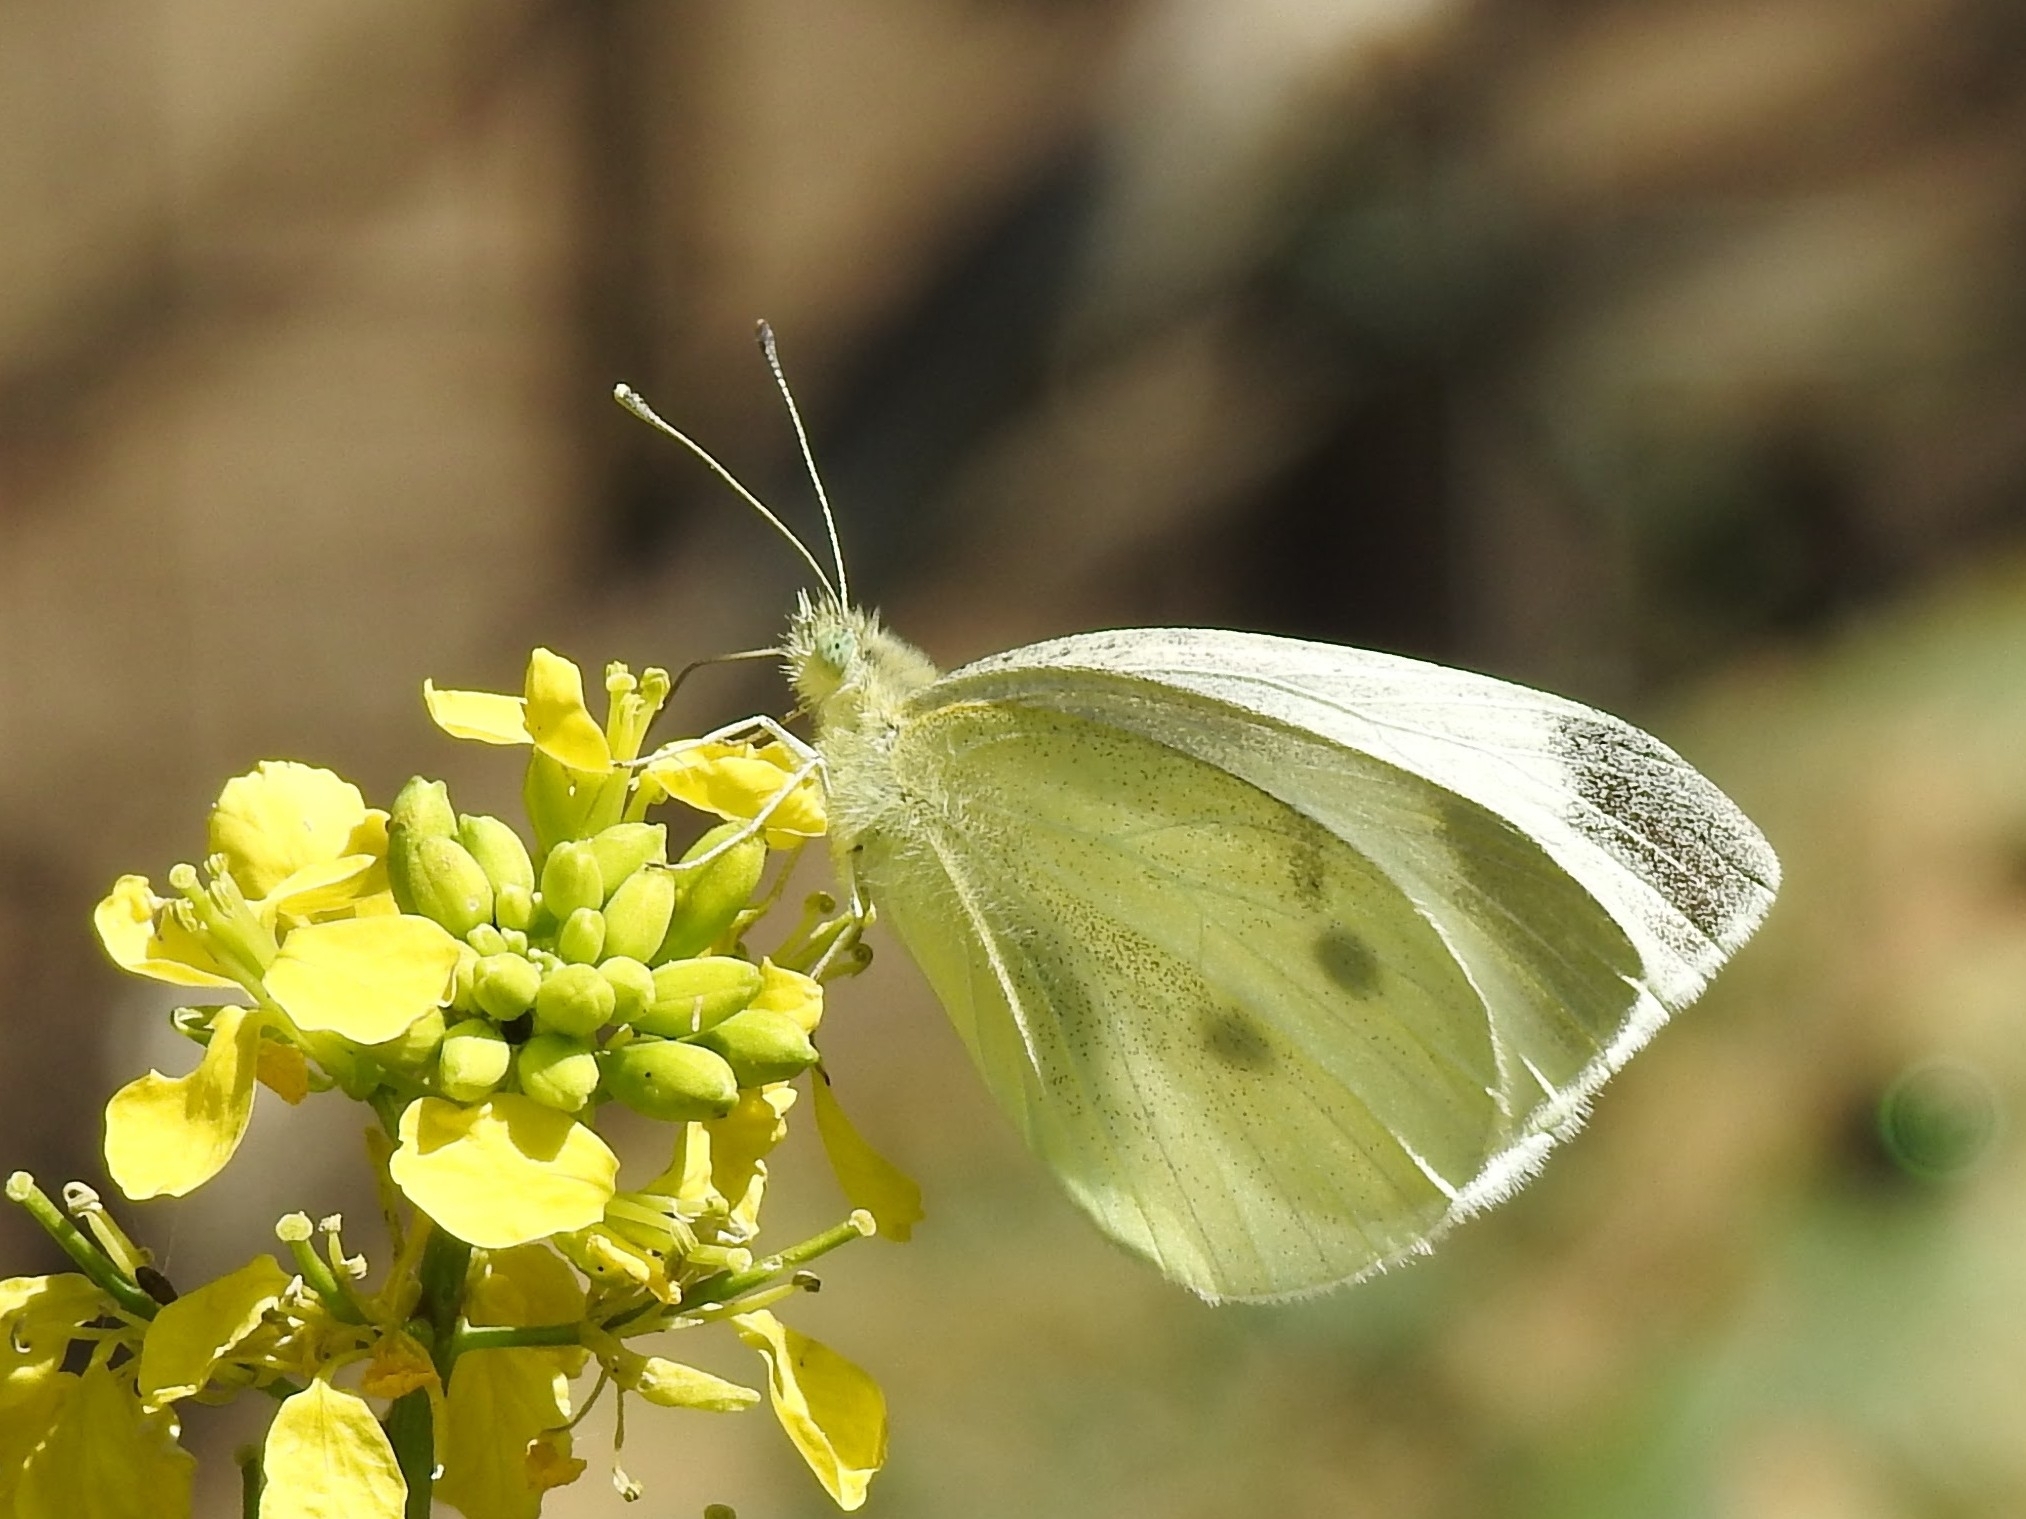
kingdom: Animalia
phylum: Arthropoda
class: Insecta
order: Lepidoptera
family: Pieridae
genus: Pieris
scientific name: Pieris rapae
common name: Small white
